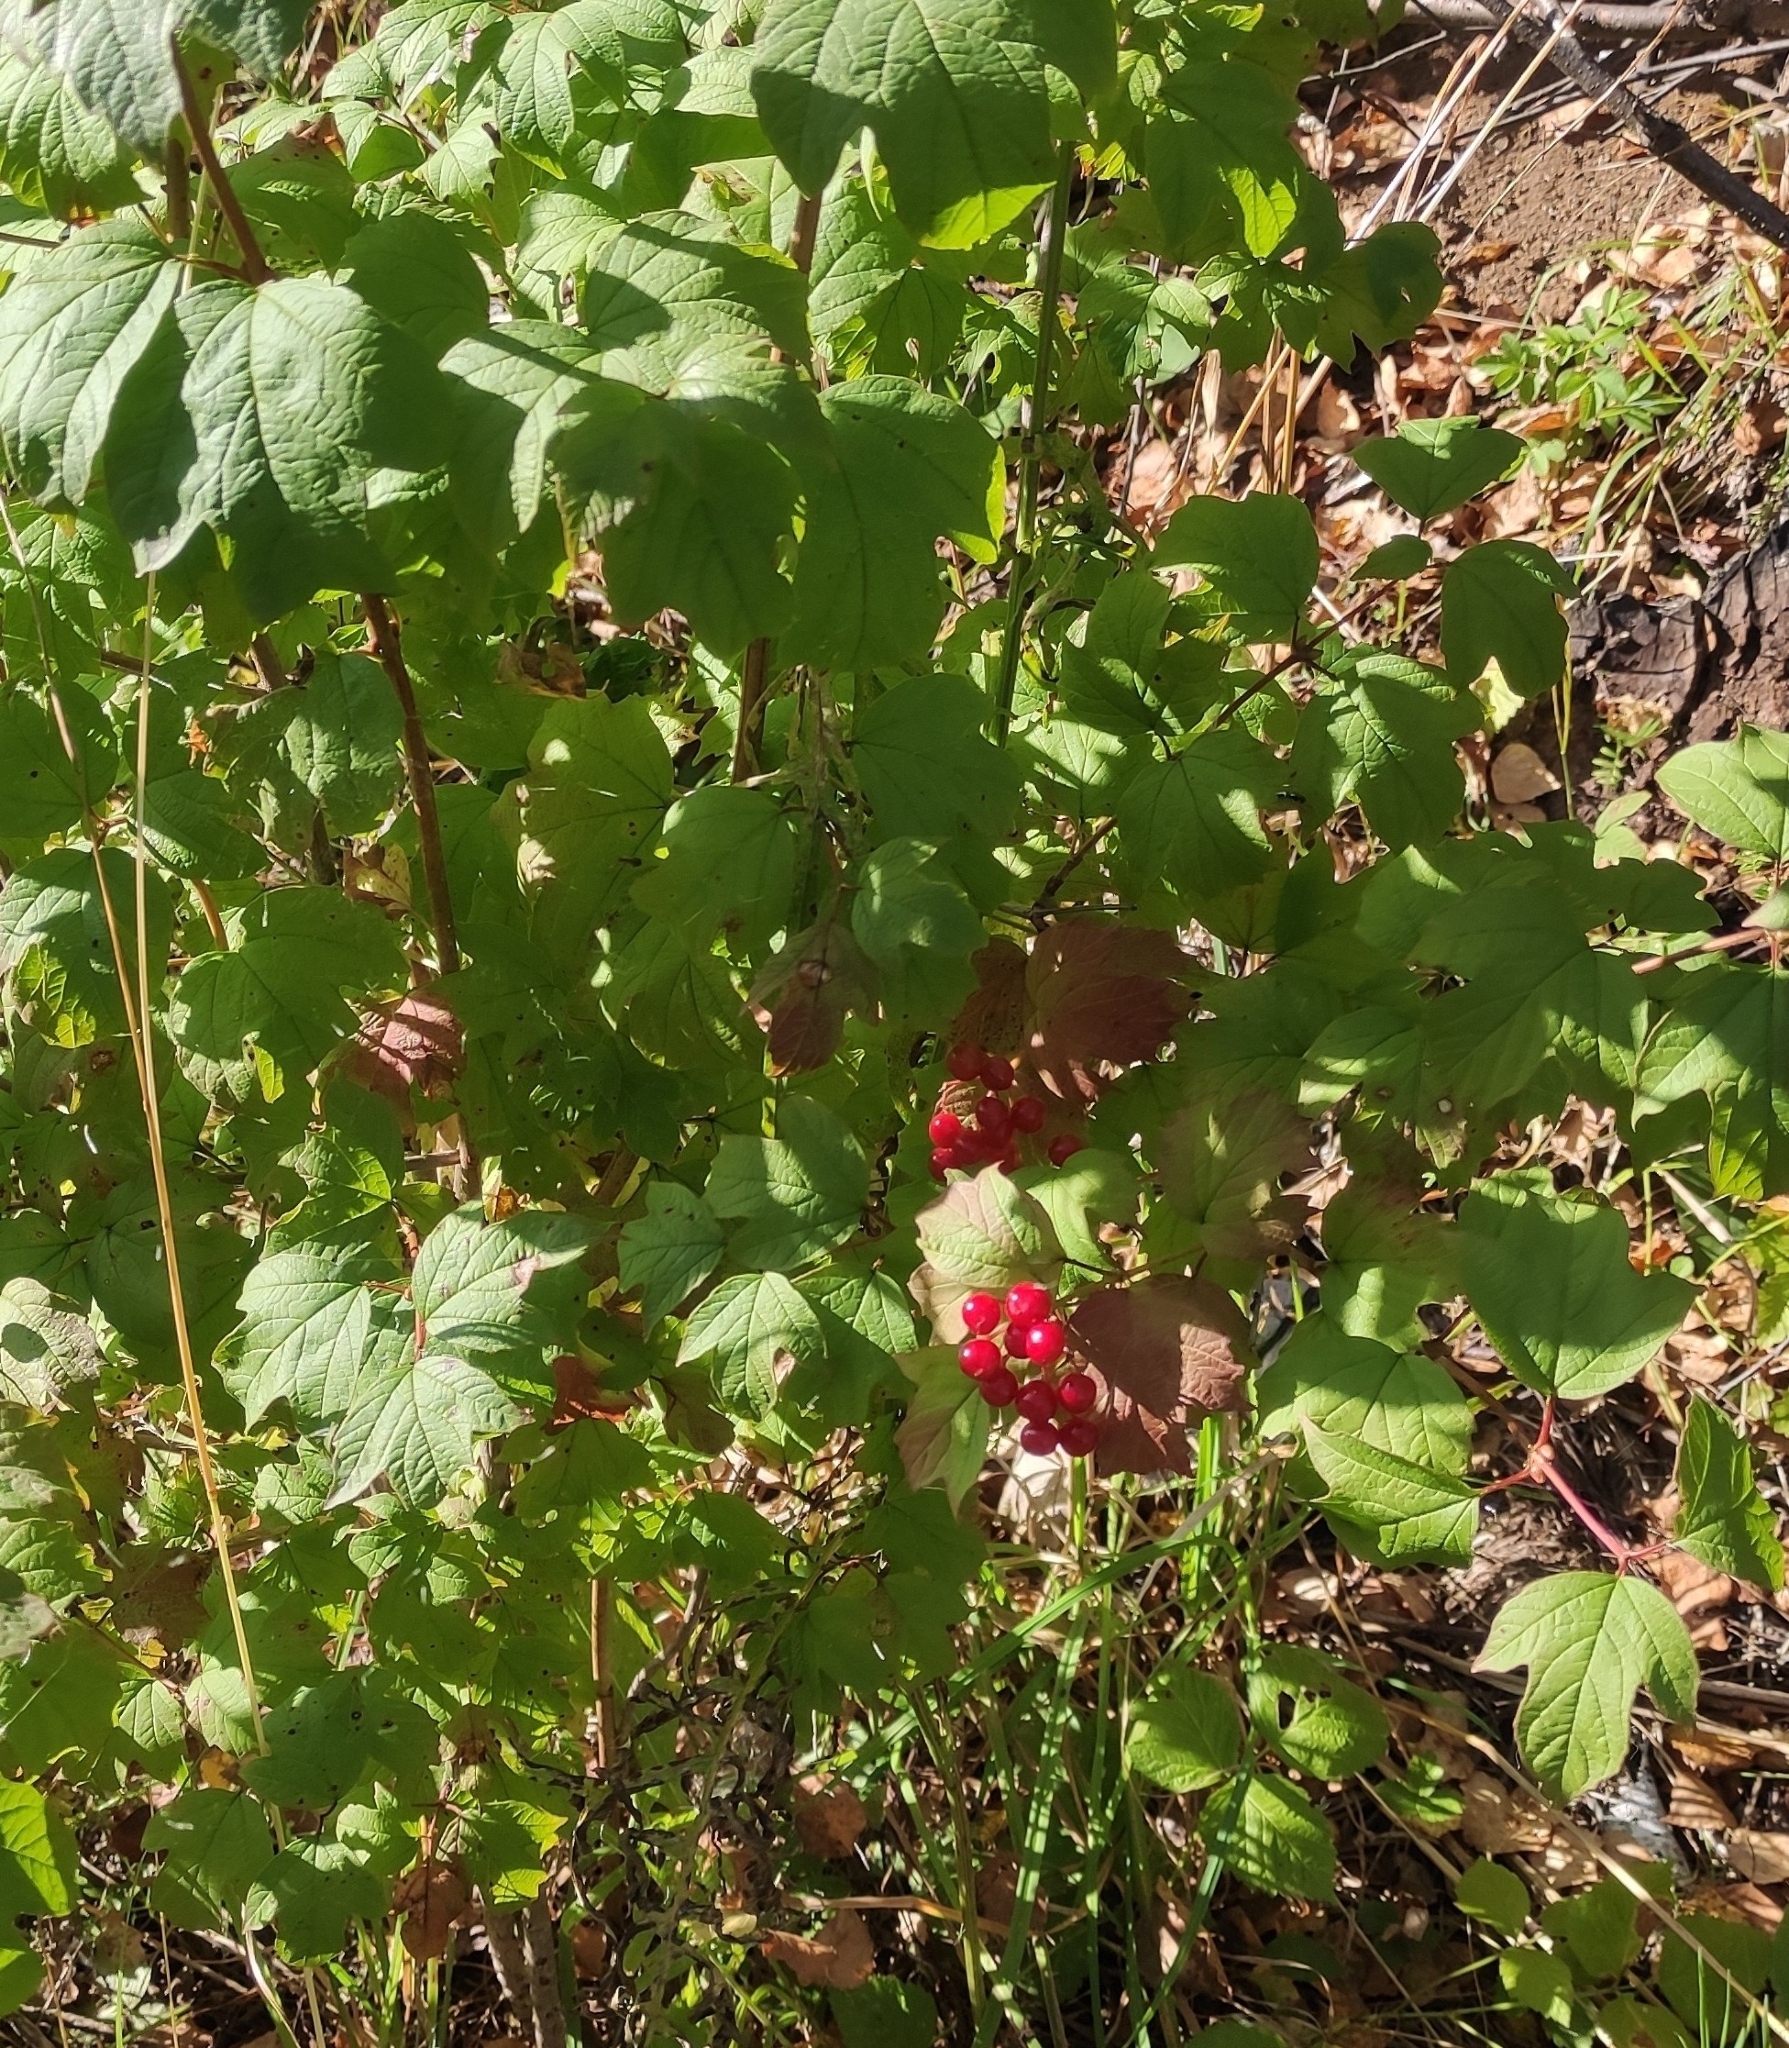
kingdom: Plantae
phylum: Tracheophyta
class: Magnoliopsida
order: Dipsacales
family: Viburnaceae
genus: Viburnum
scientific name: Viburnum opulus
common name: Guelder-rose
